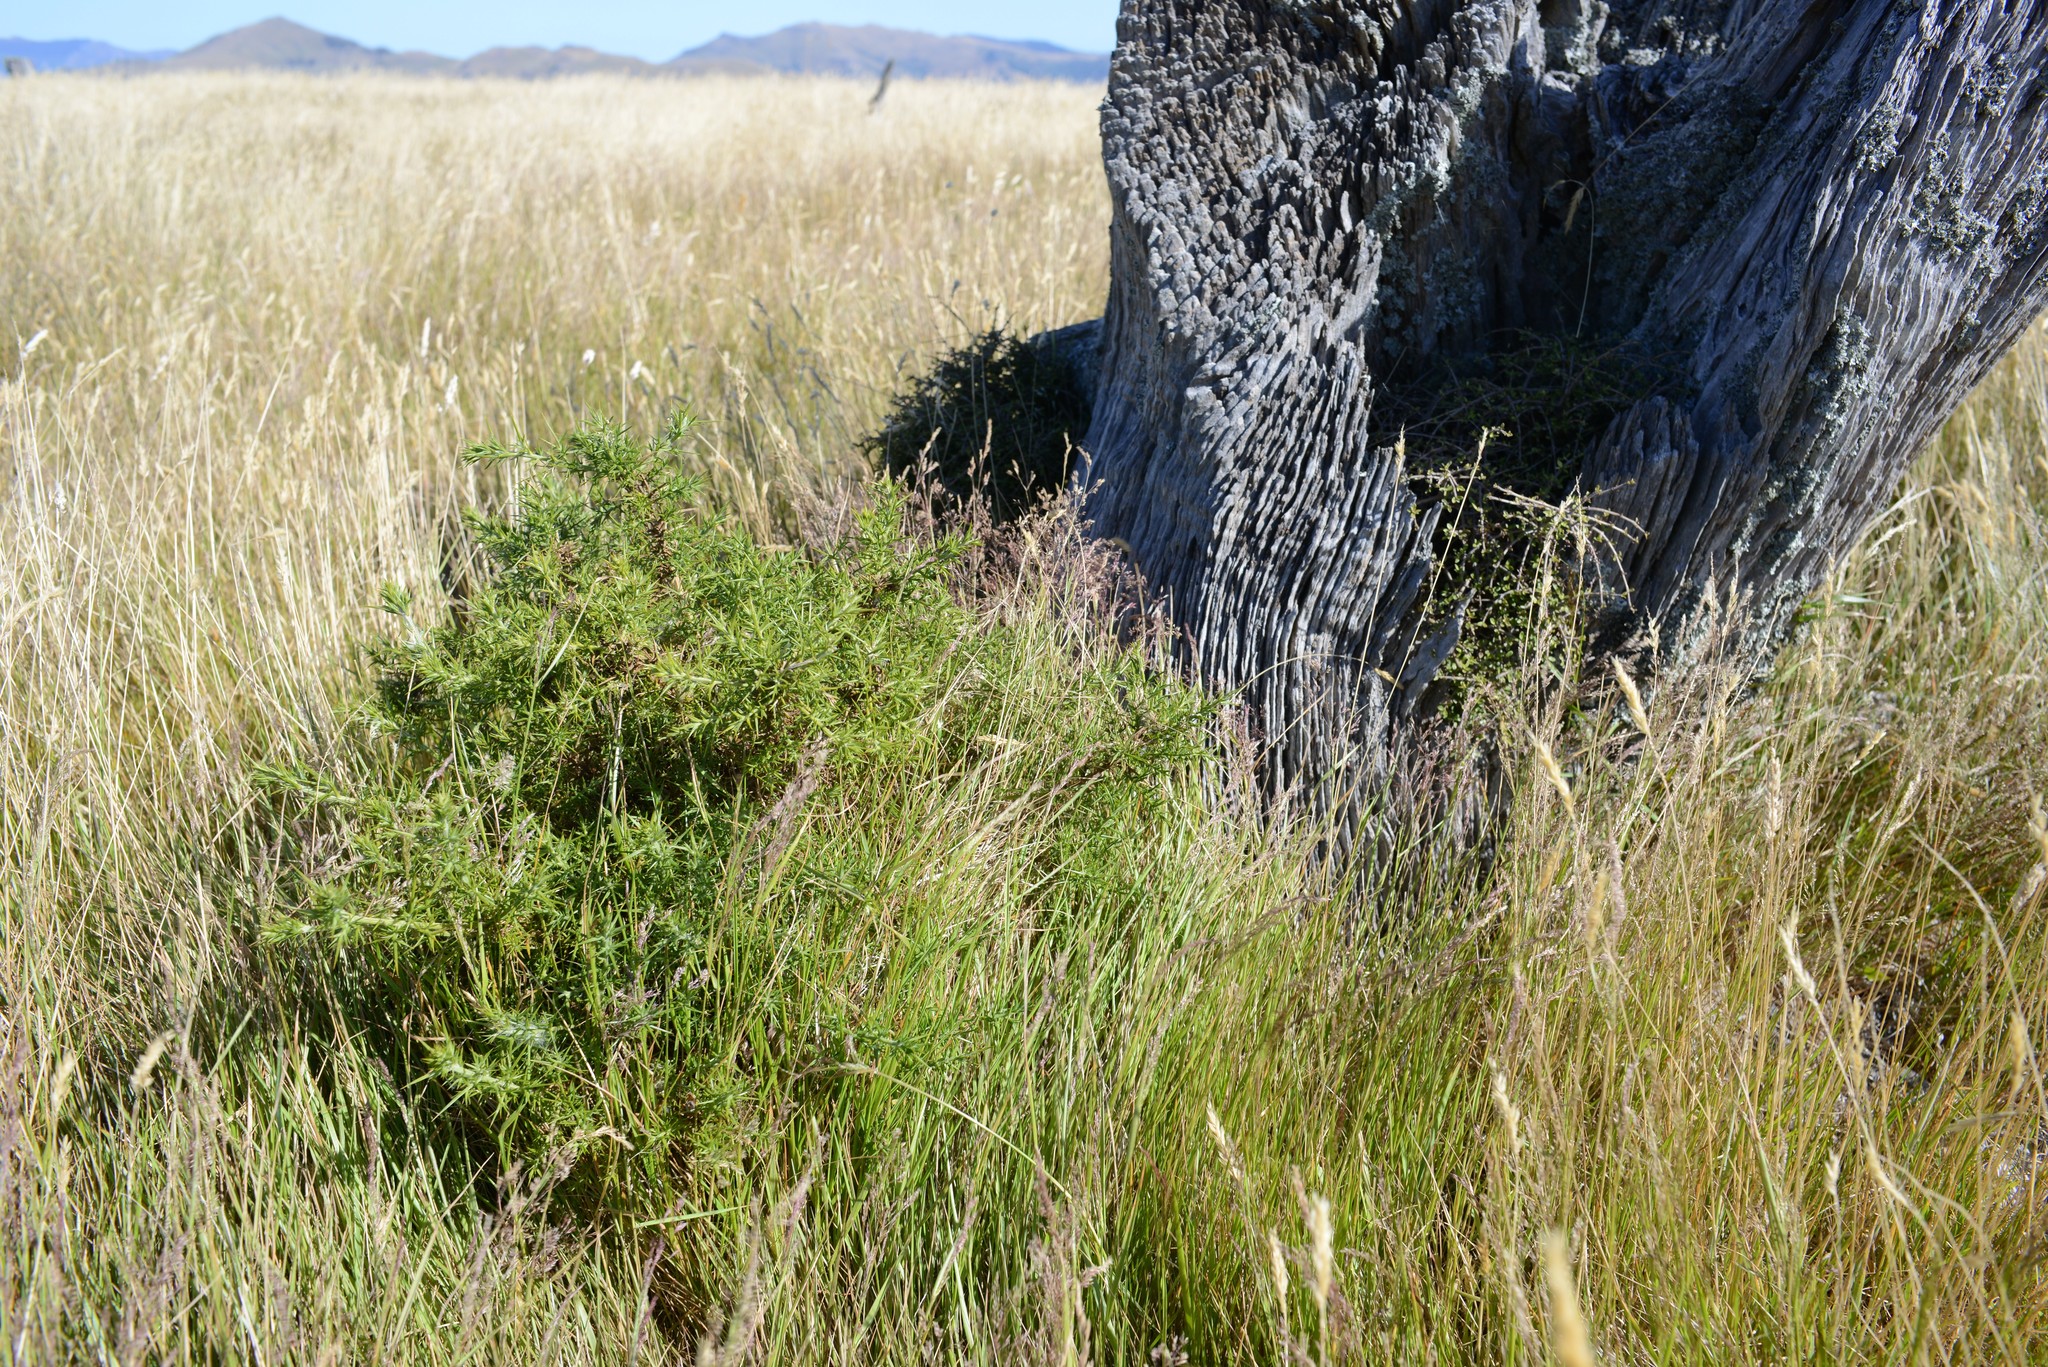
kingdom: Plantae
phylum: Tracheophyta
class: Magnoliopsida
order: Fabales
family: Fabaceae
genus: Ulex
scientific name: Ulex europaeus
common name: Common gorse
